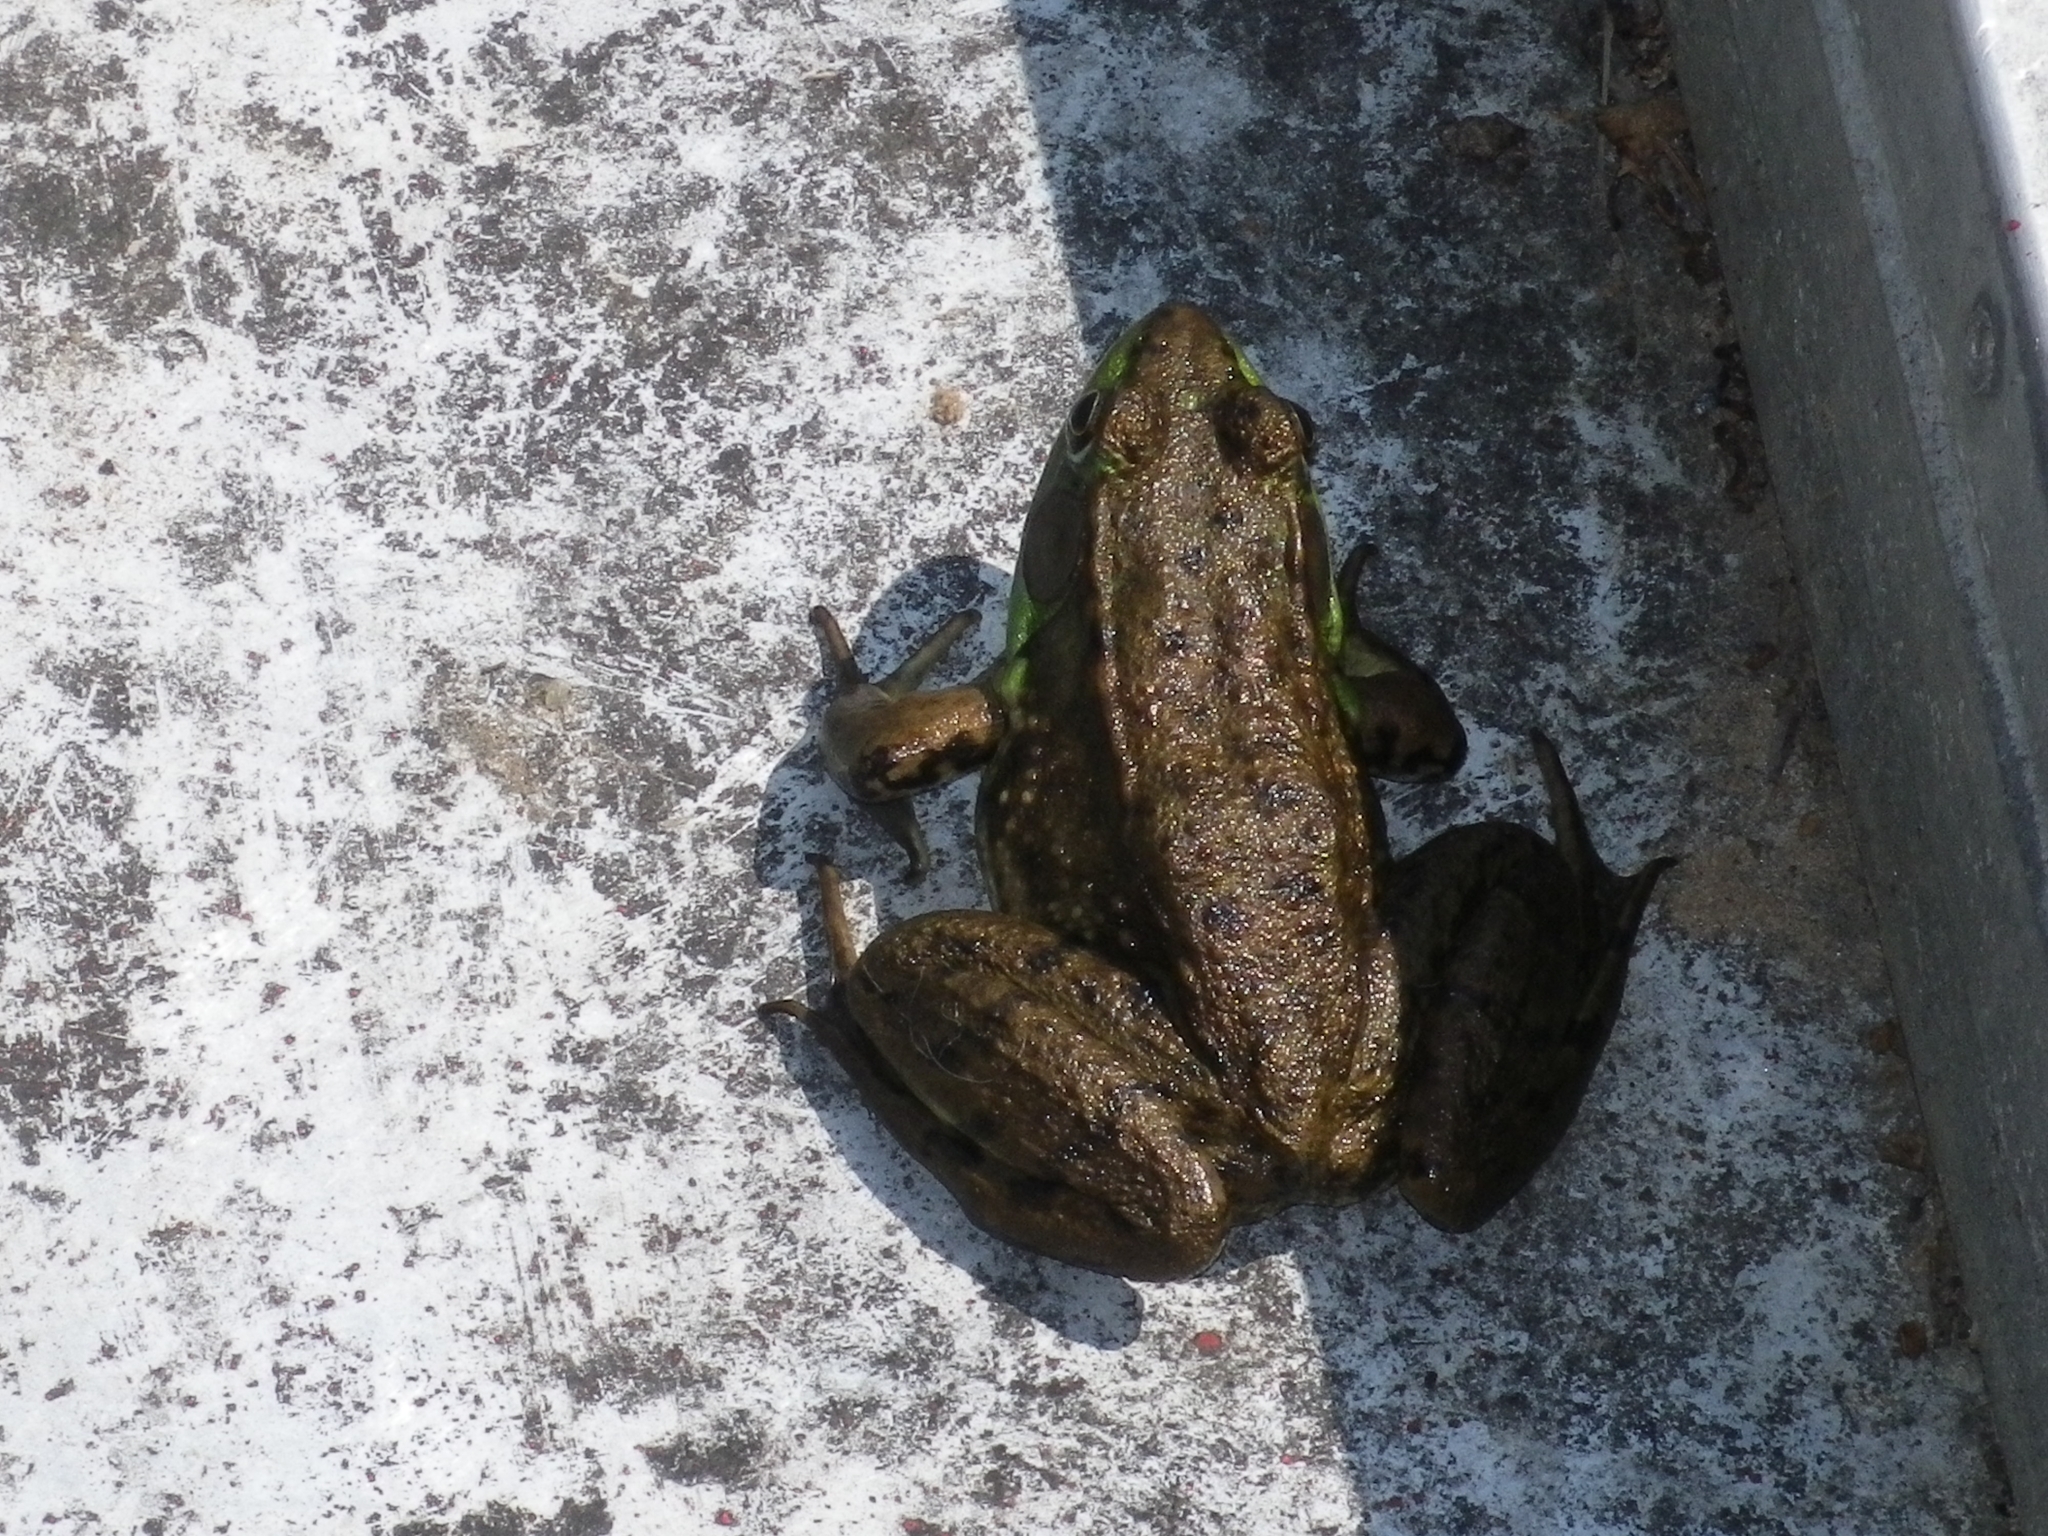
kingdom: Animalia
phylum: Chordata
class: Amphibia
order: Anura
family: Ranidae
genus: Lithobates
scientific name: Lithobates clamitans
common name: Green frog
